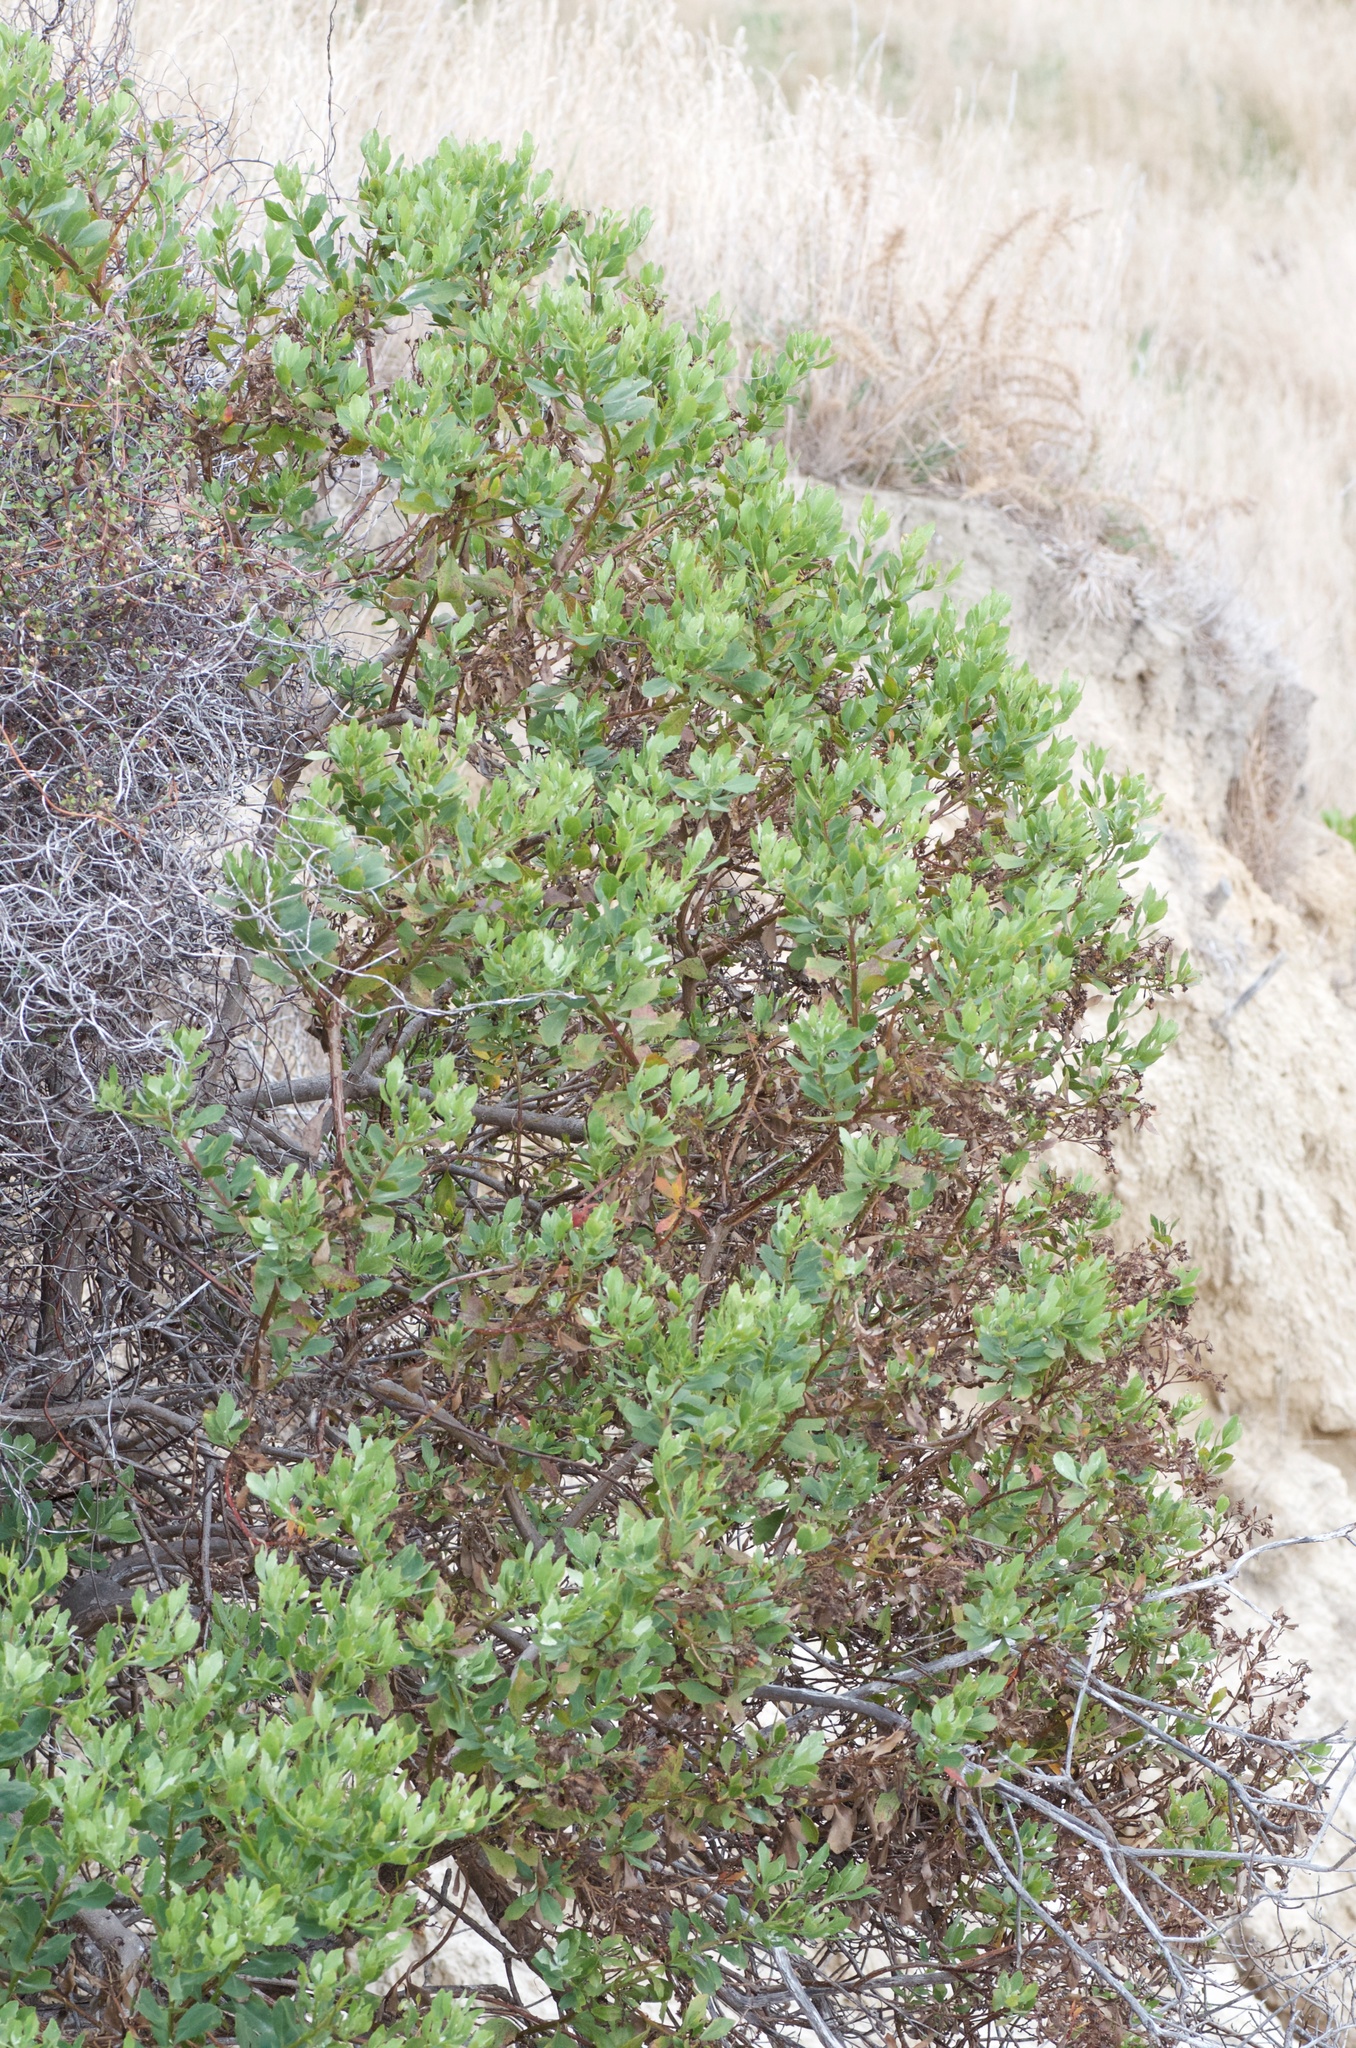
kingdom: Plantae
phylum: Tracheophyta
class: Magnoliopsida
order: Asterales
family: Asteraceae
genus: Osteospermum
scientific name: Osteospermum moniliferum
